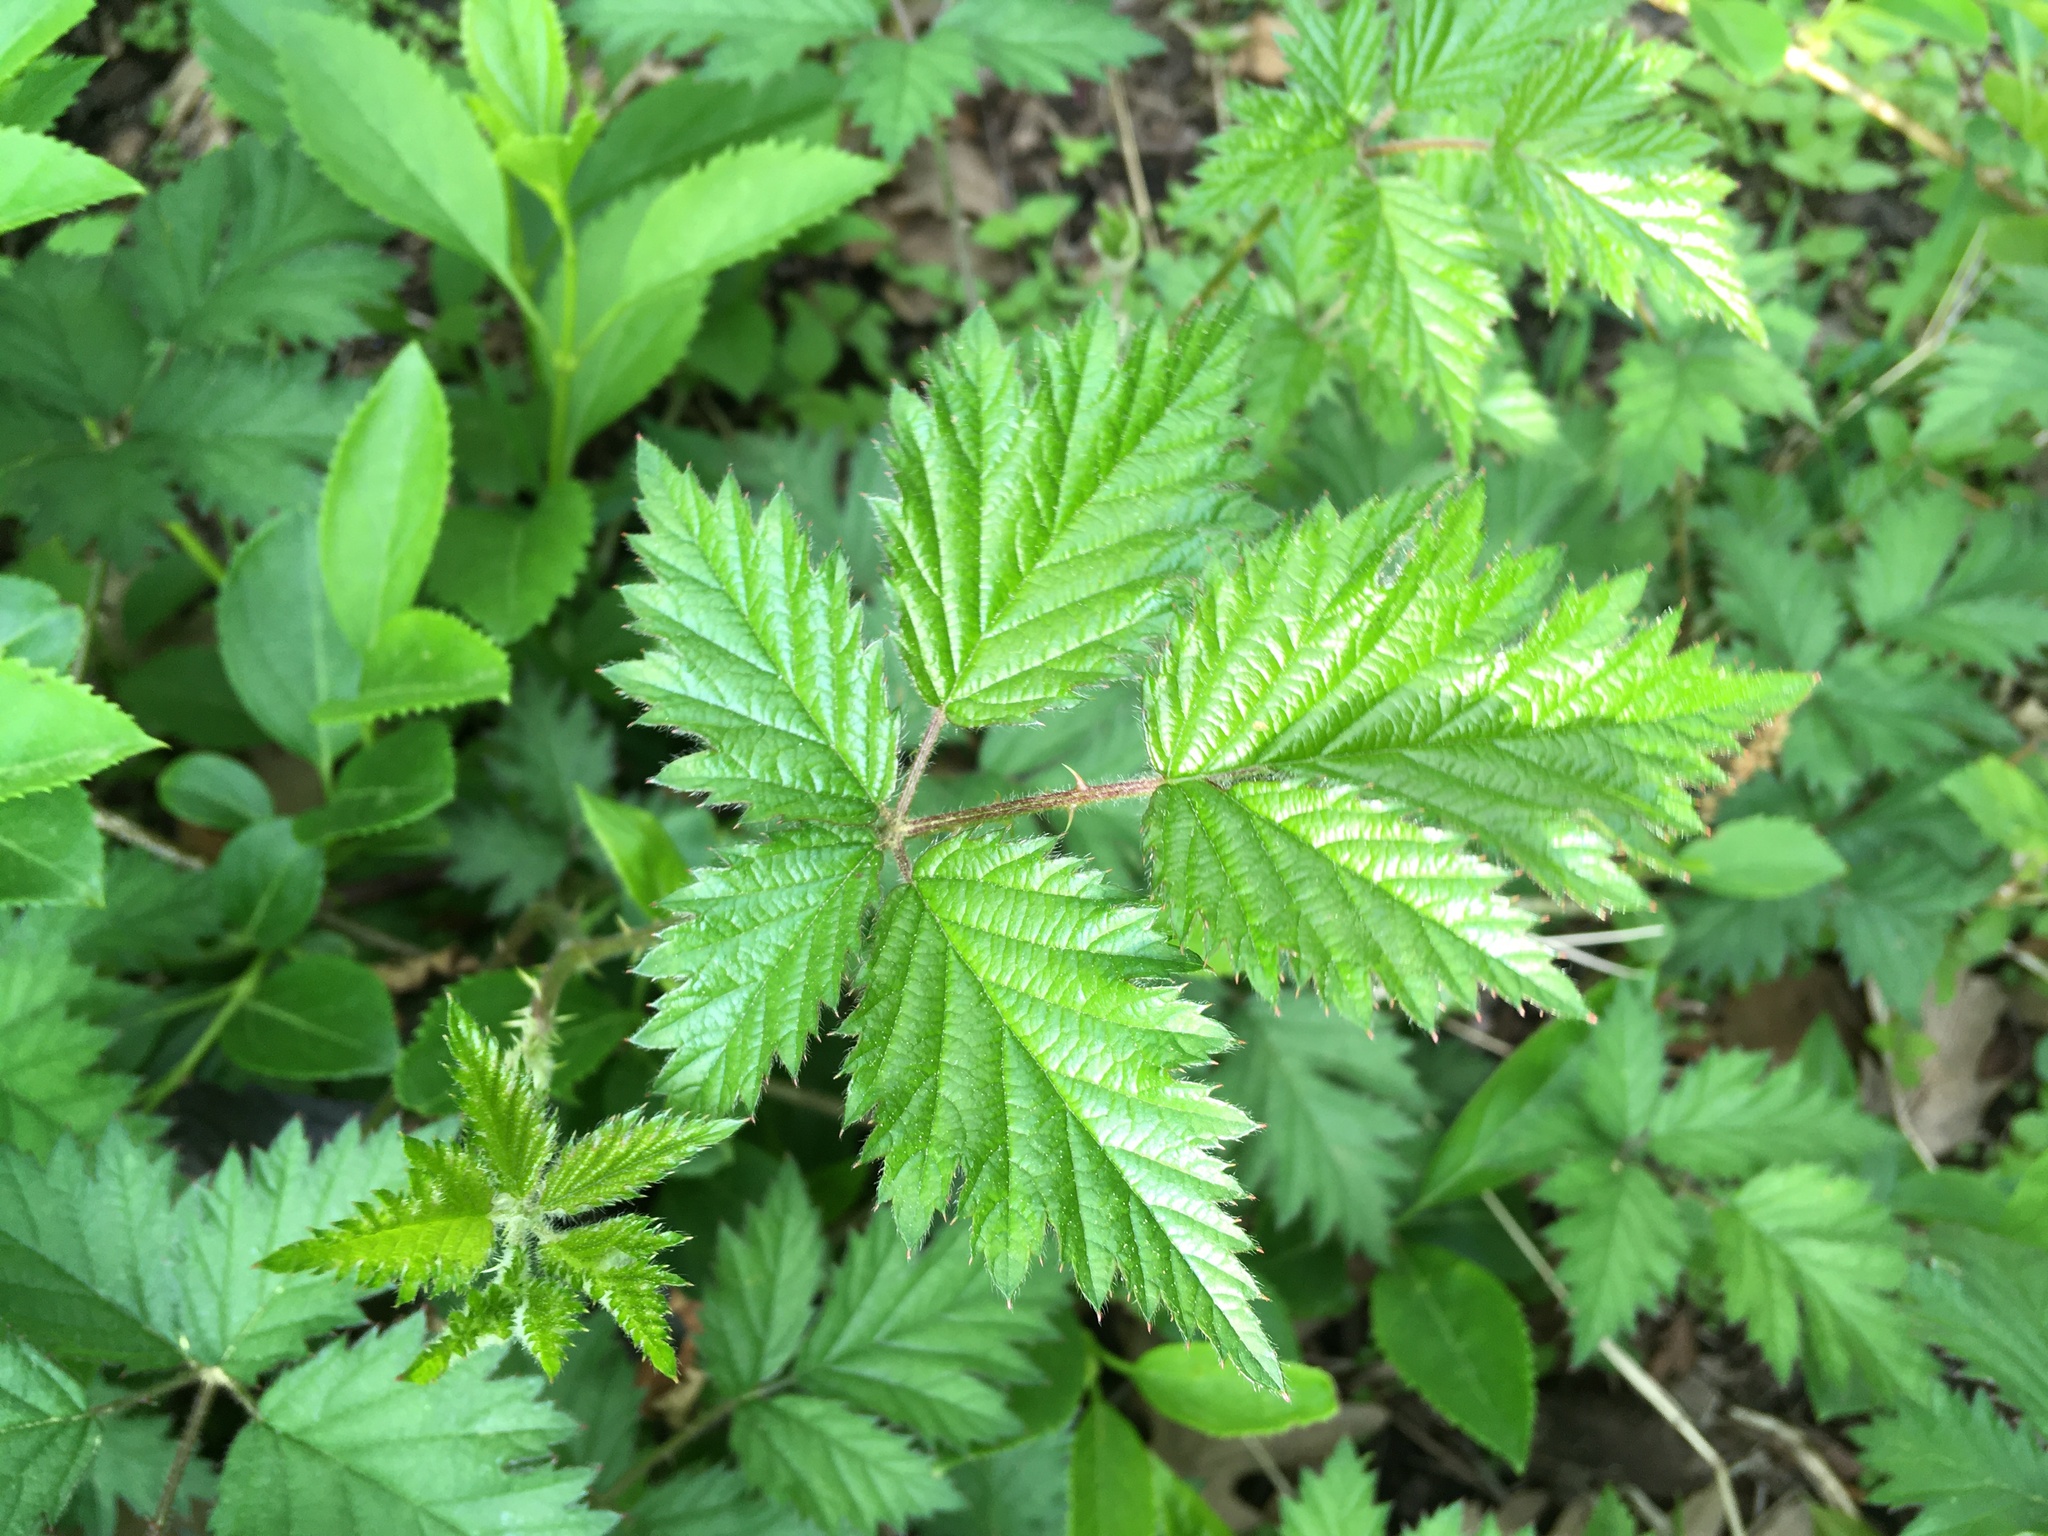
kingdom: Plantae
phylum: Tracheophyta
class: Magnoliopsida
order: Rosales
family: Rosaceae
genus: Rubus
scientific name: Rubus laciniatus
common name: Evergreen blackberry
